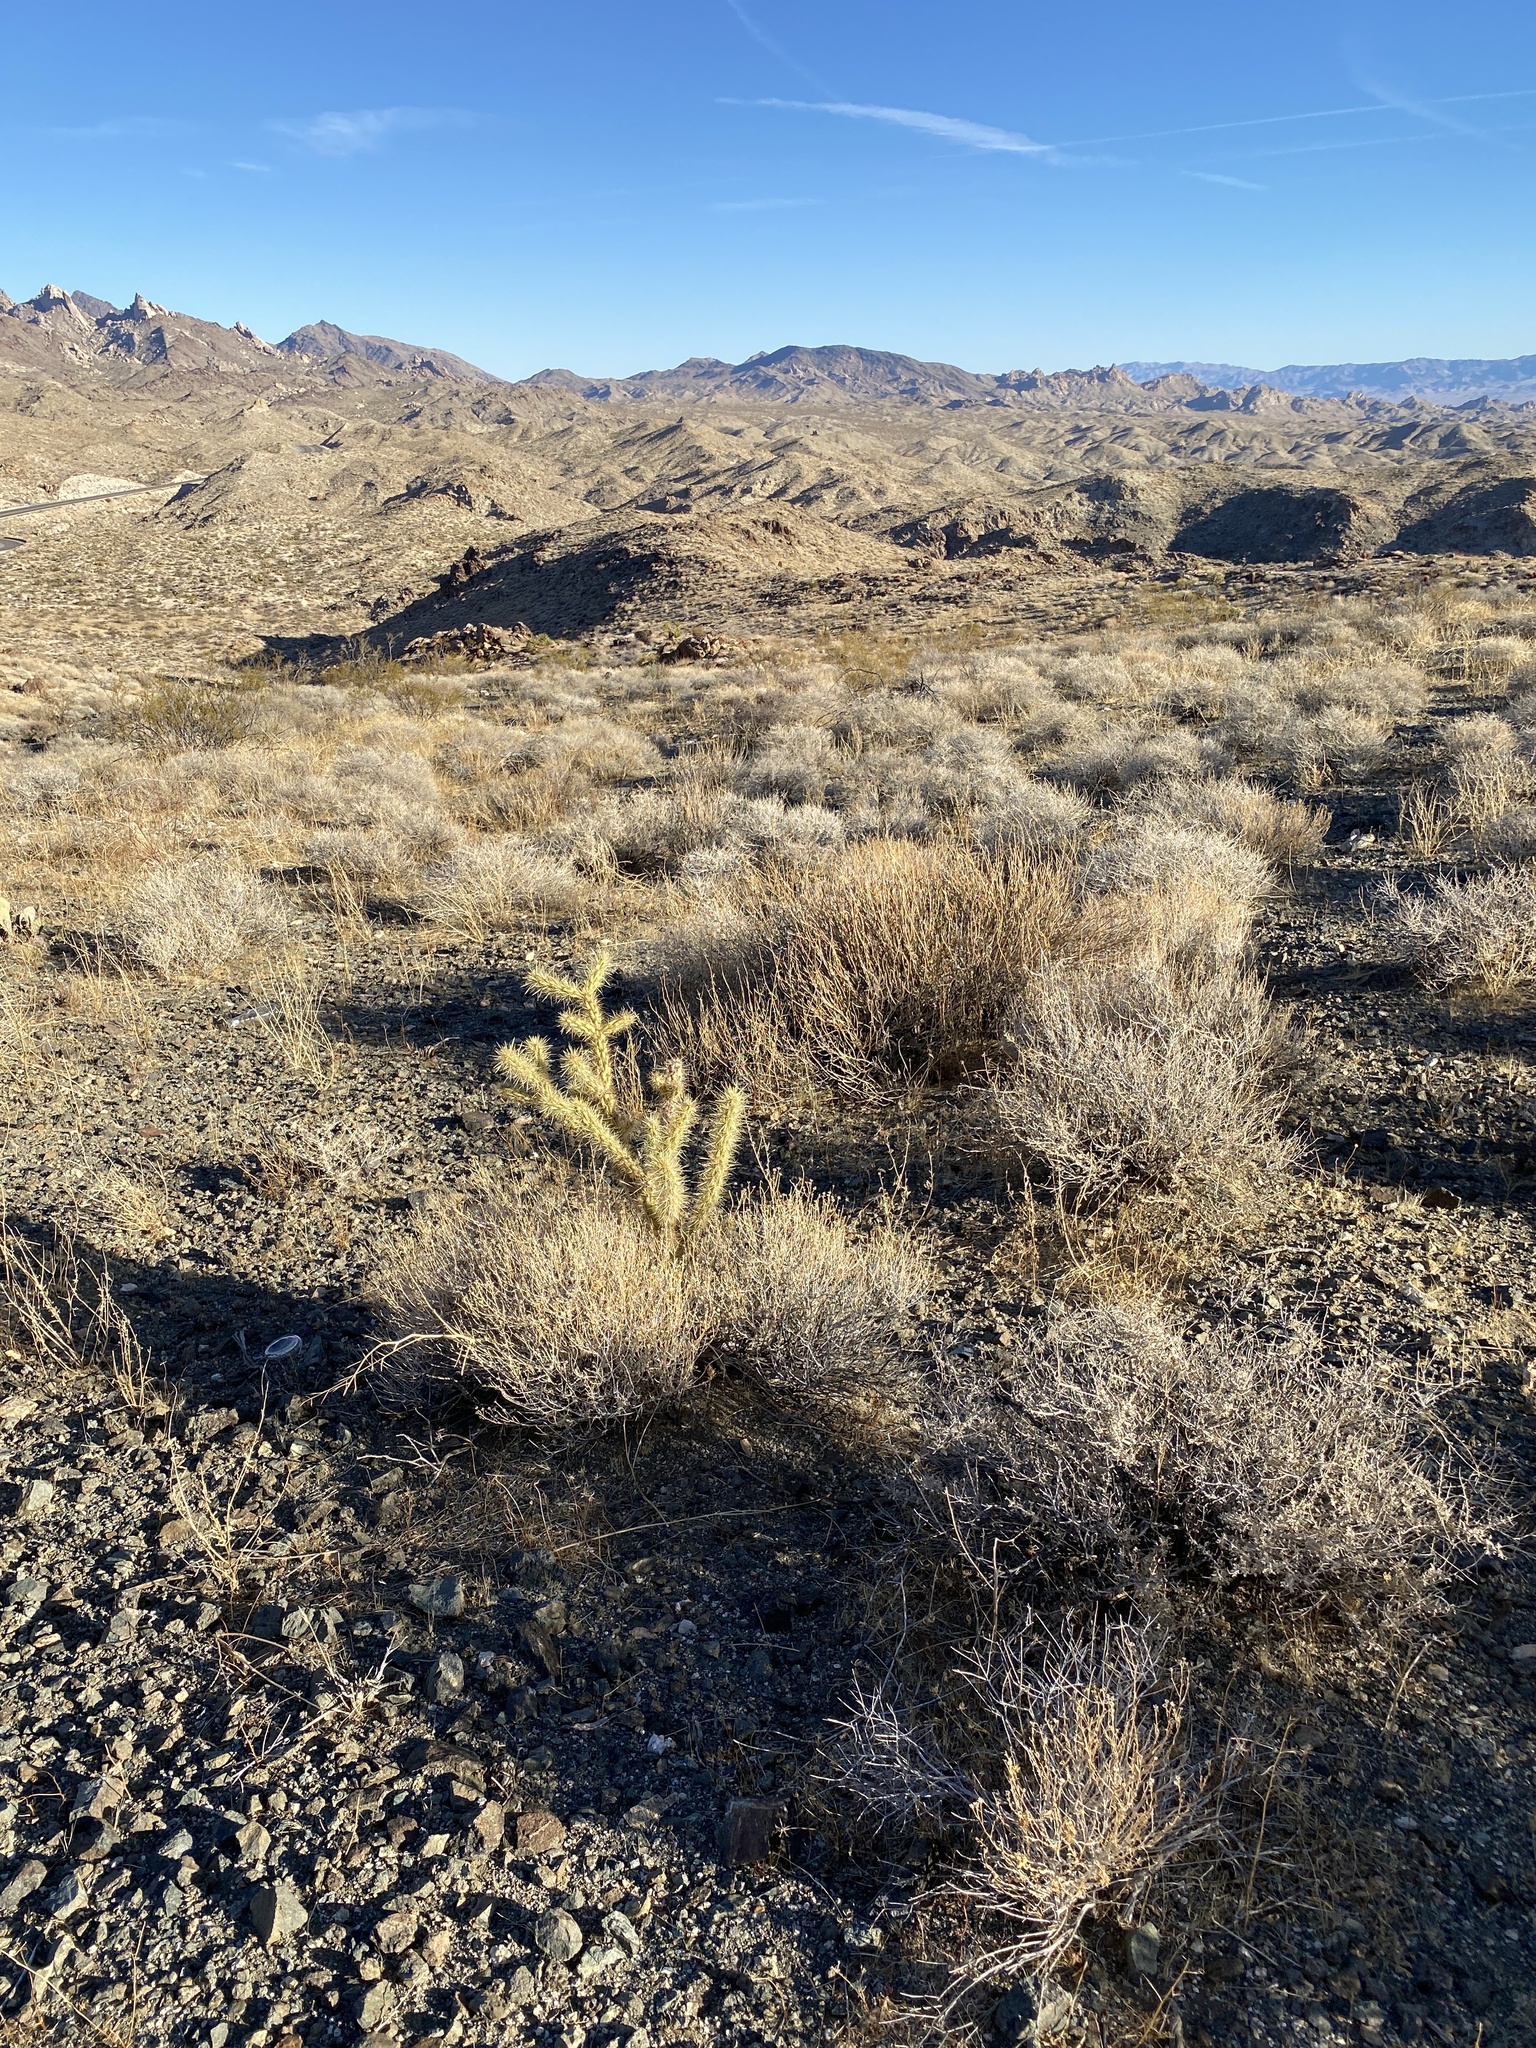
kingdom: Plantae
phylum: Tracheophyta
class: Magnoliopsida
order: Caryophyllales
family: Cactaceae
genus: Cylindropuntia
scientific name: Cylindropuntia acanthocarpa
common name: Buckhorn cholla
